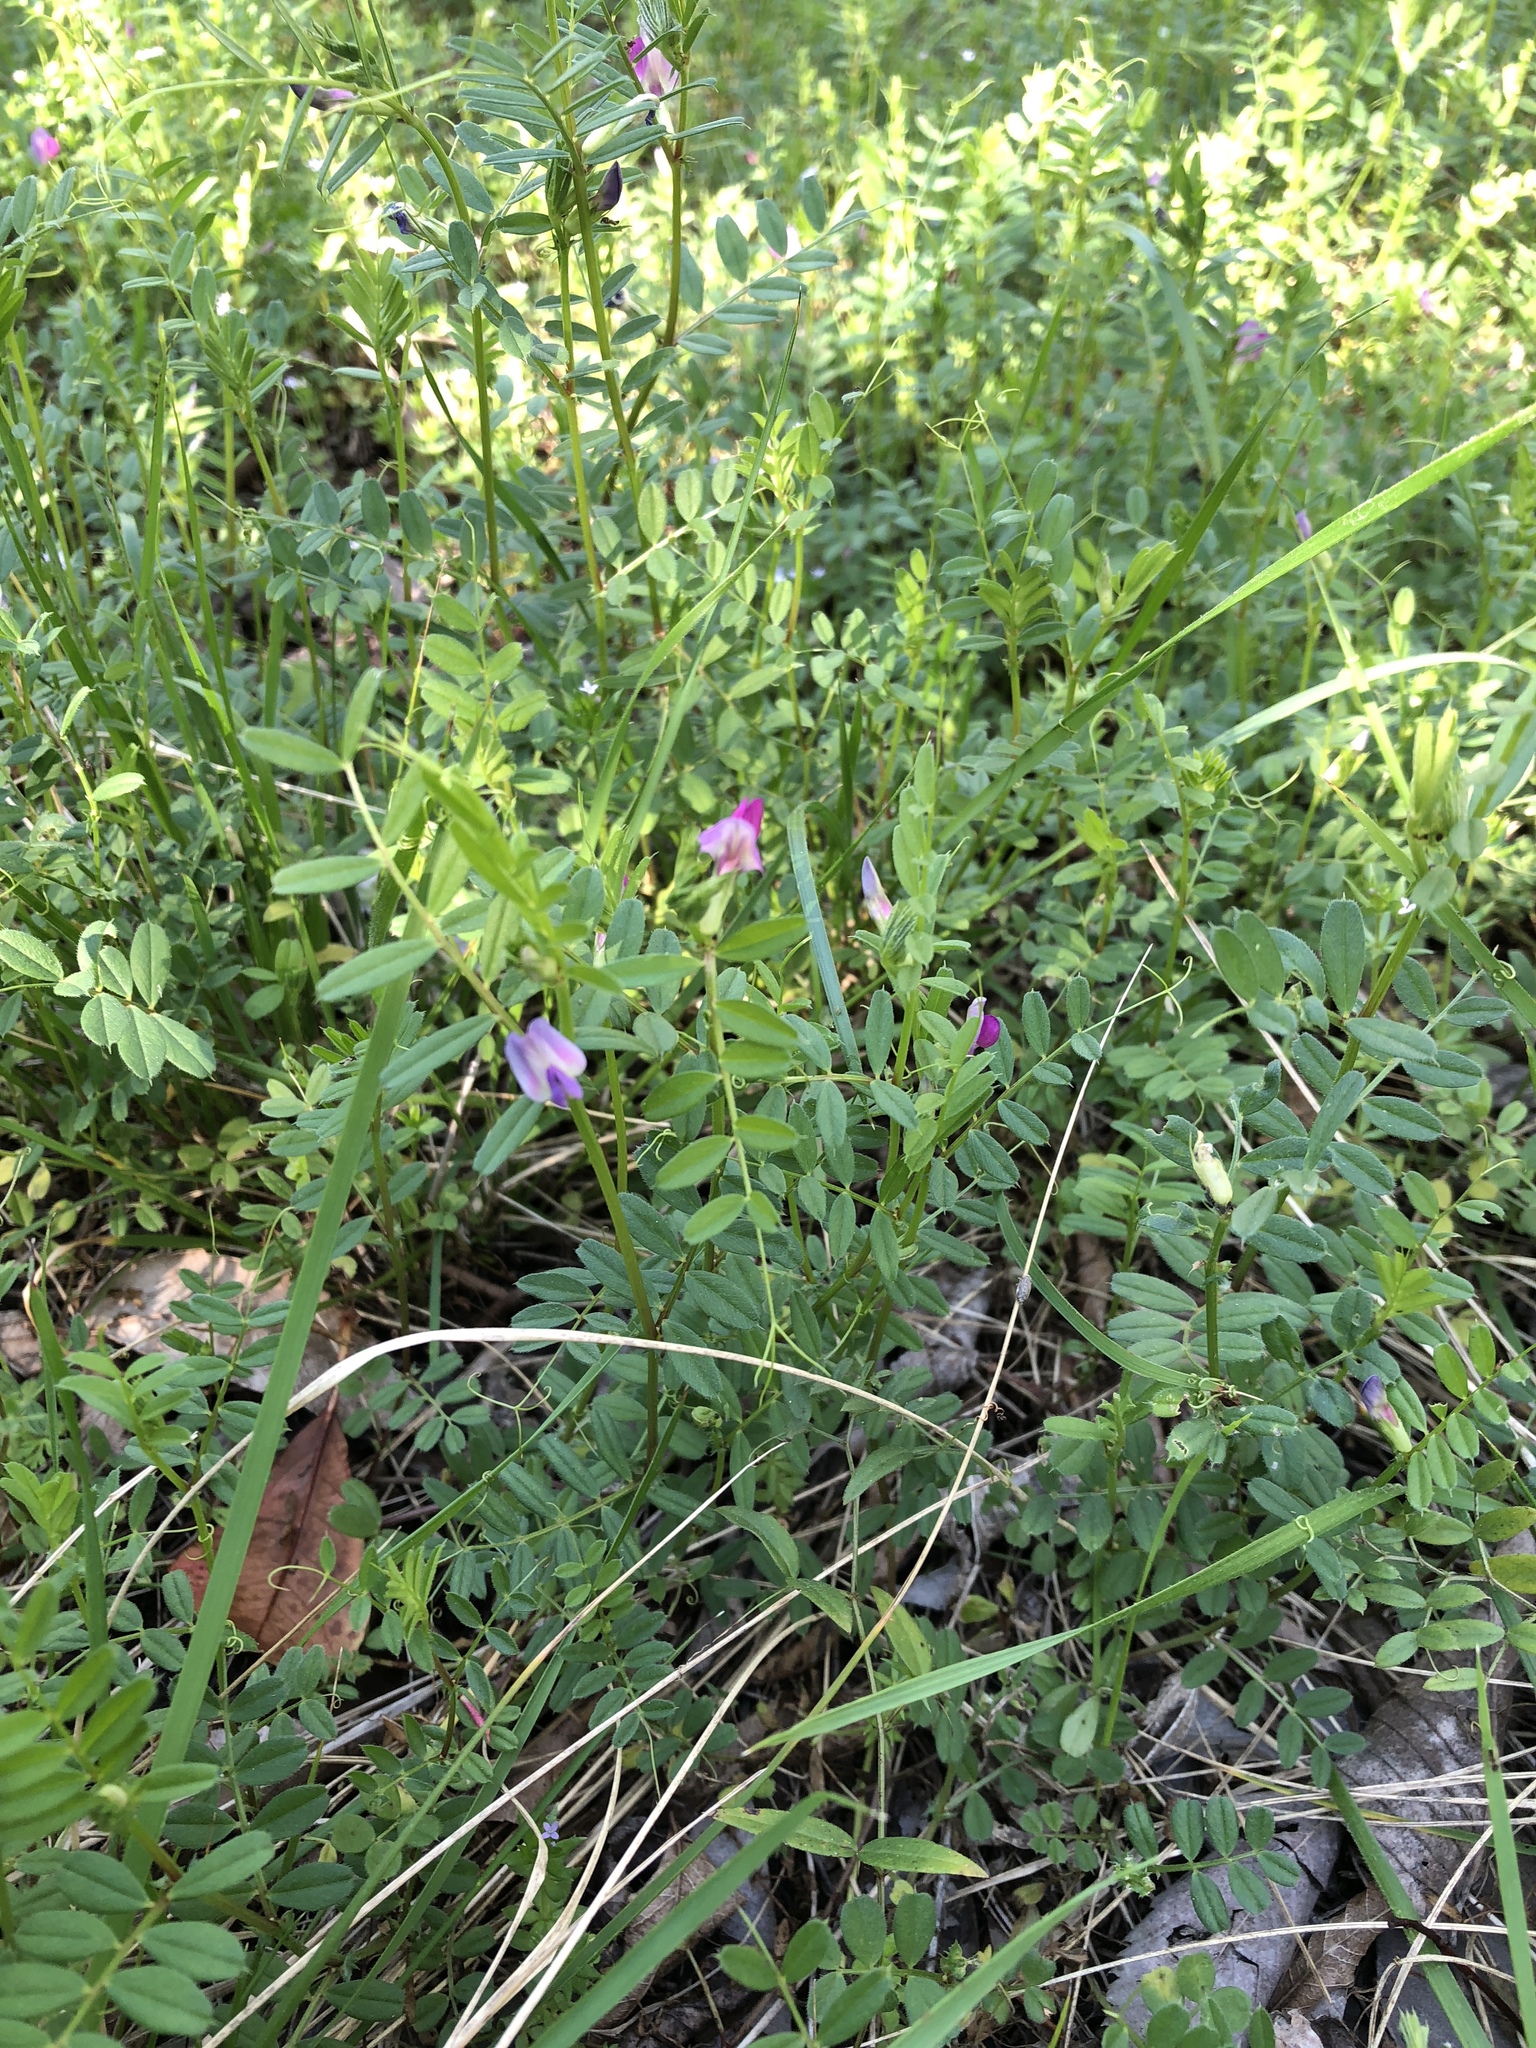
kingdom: Plantae
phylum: Tracheophyta
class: Magnoliopsida
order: Fabales
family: Fabaceae
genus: Vicia
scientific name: Vicia sativa
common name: Garden vetch
